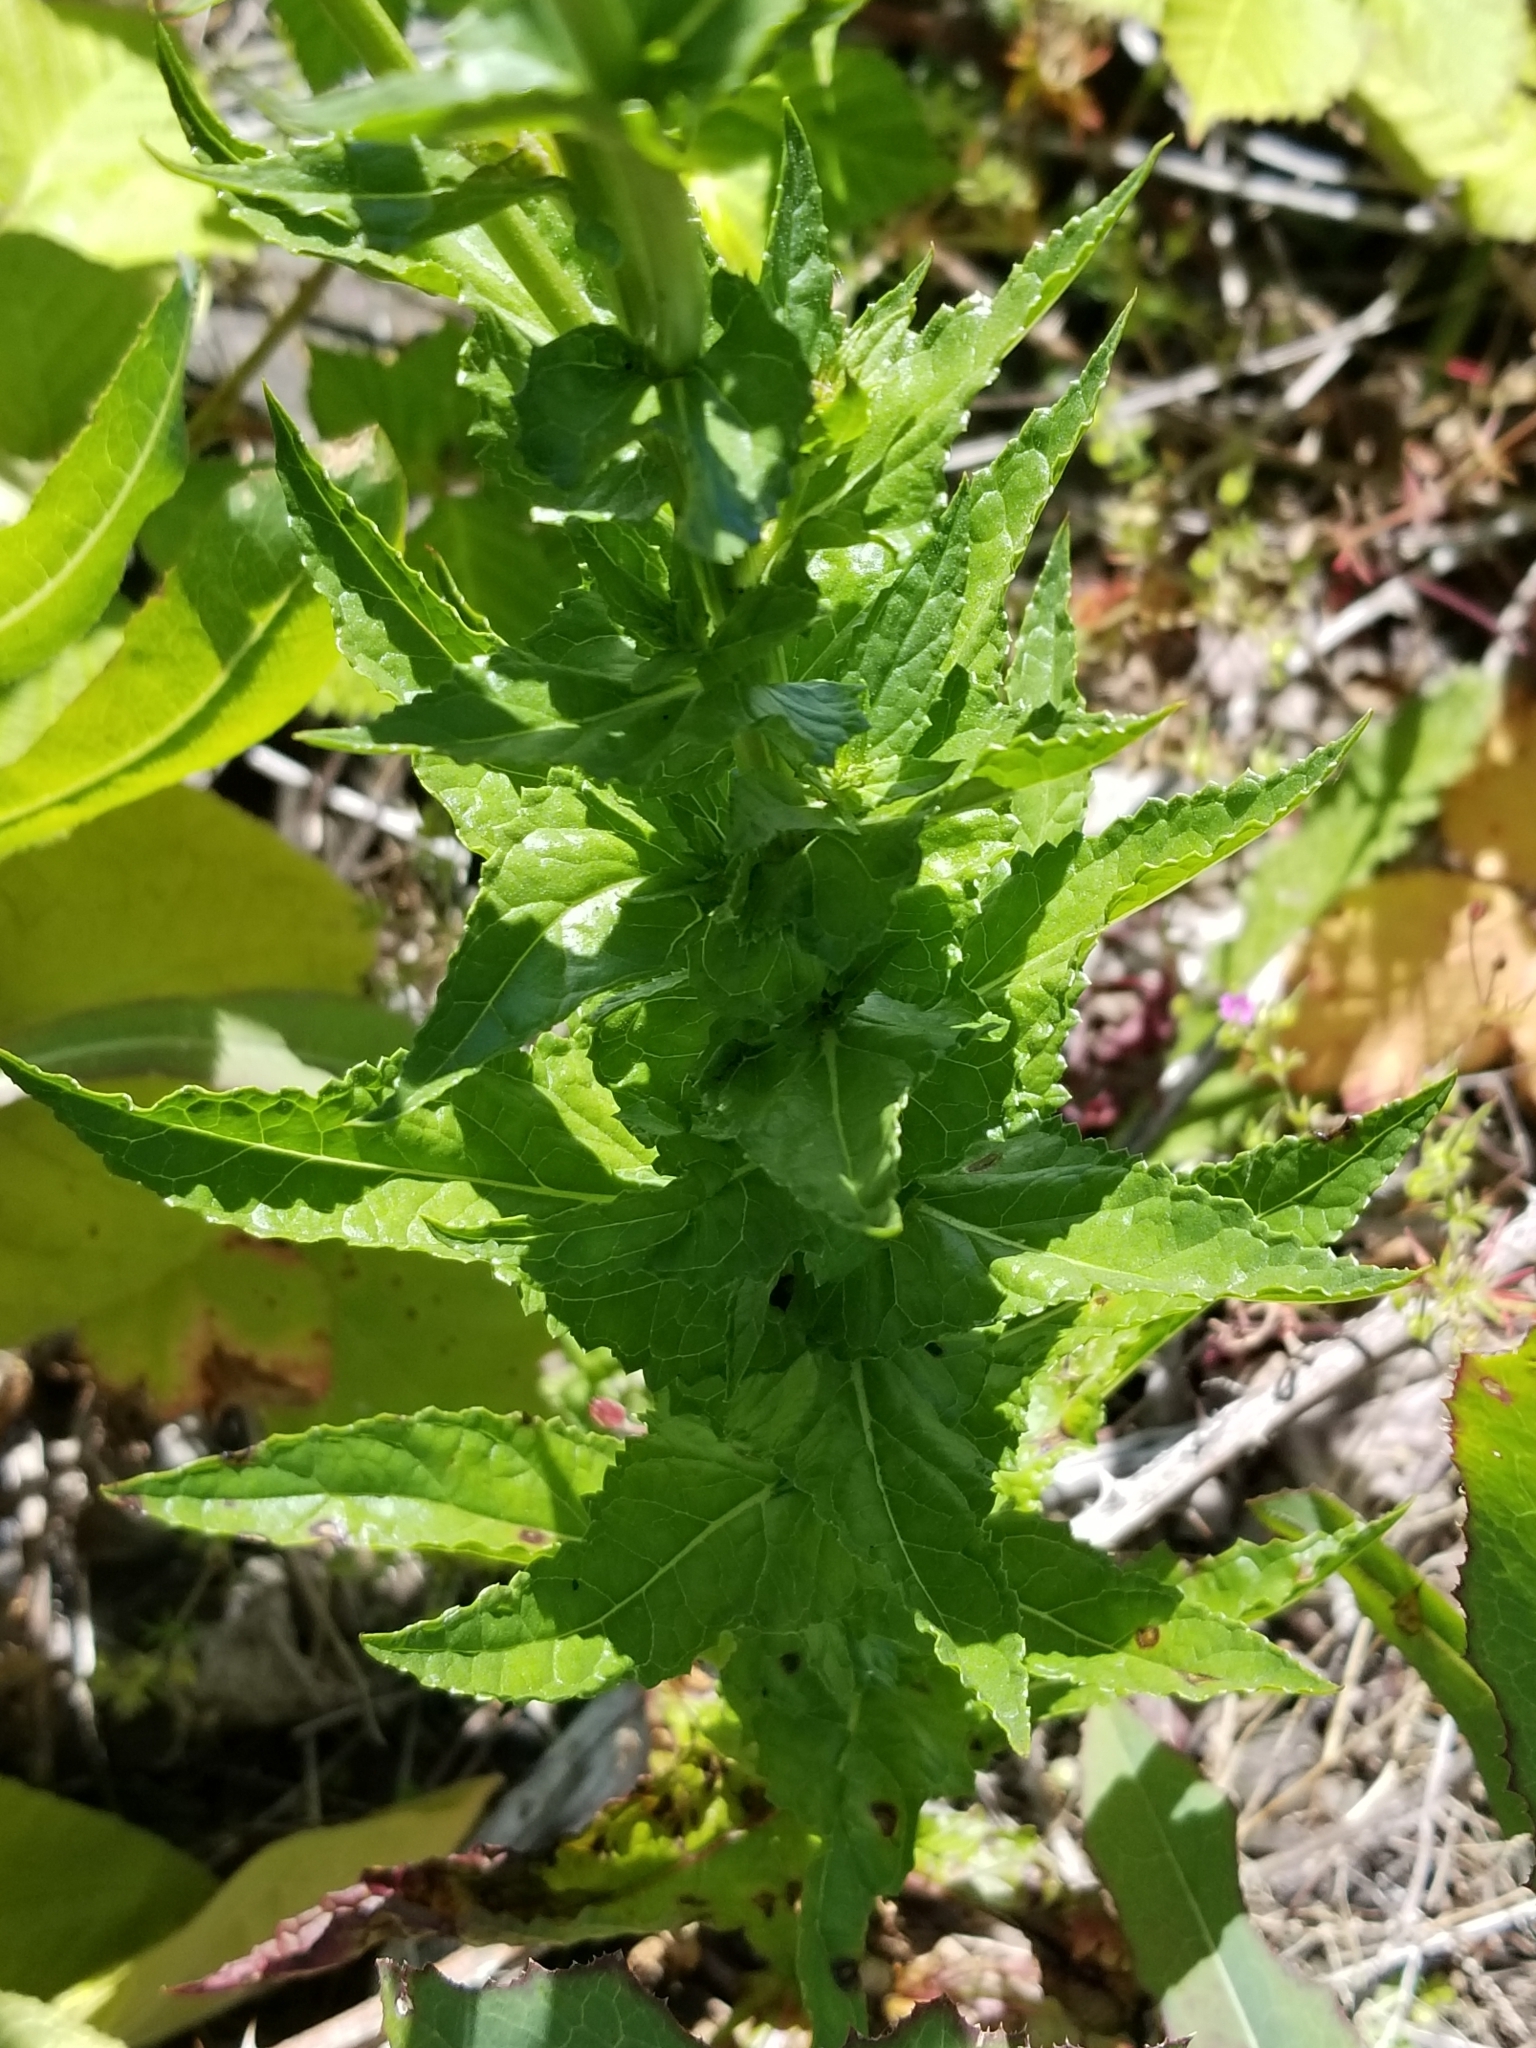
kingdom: Plantae
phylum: Tracheophyta
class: Magnoliopsida
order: Lamiales
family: Scrophulariaceae
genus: Verbascum
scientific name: Verbascum blattaria
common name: Moth mullein
